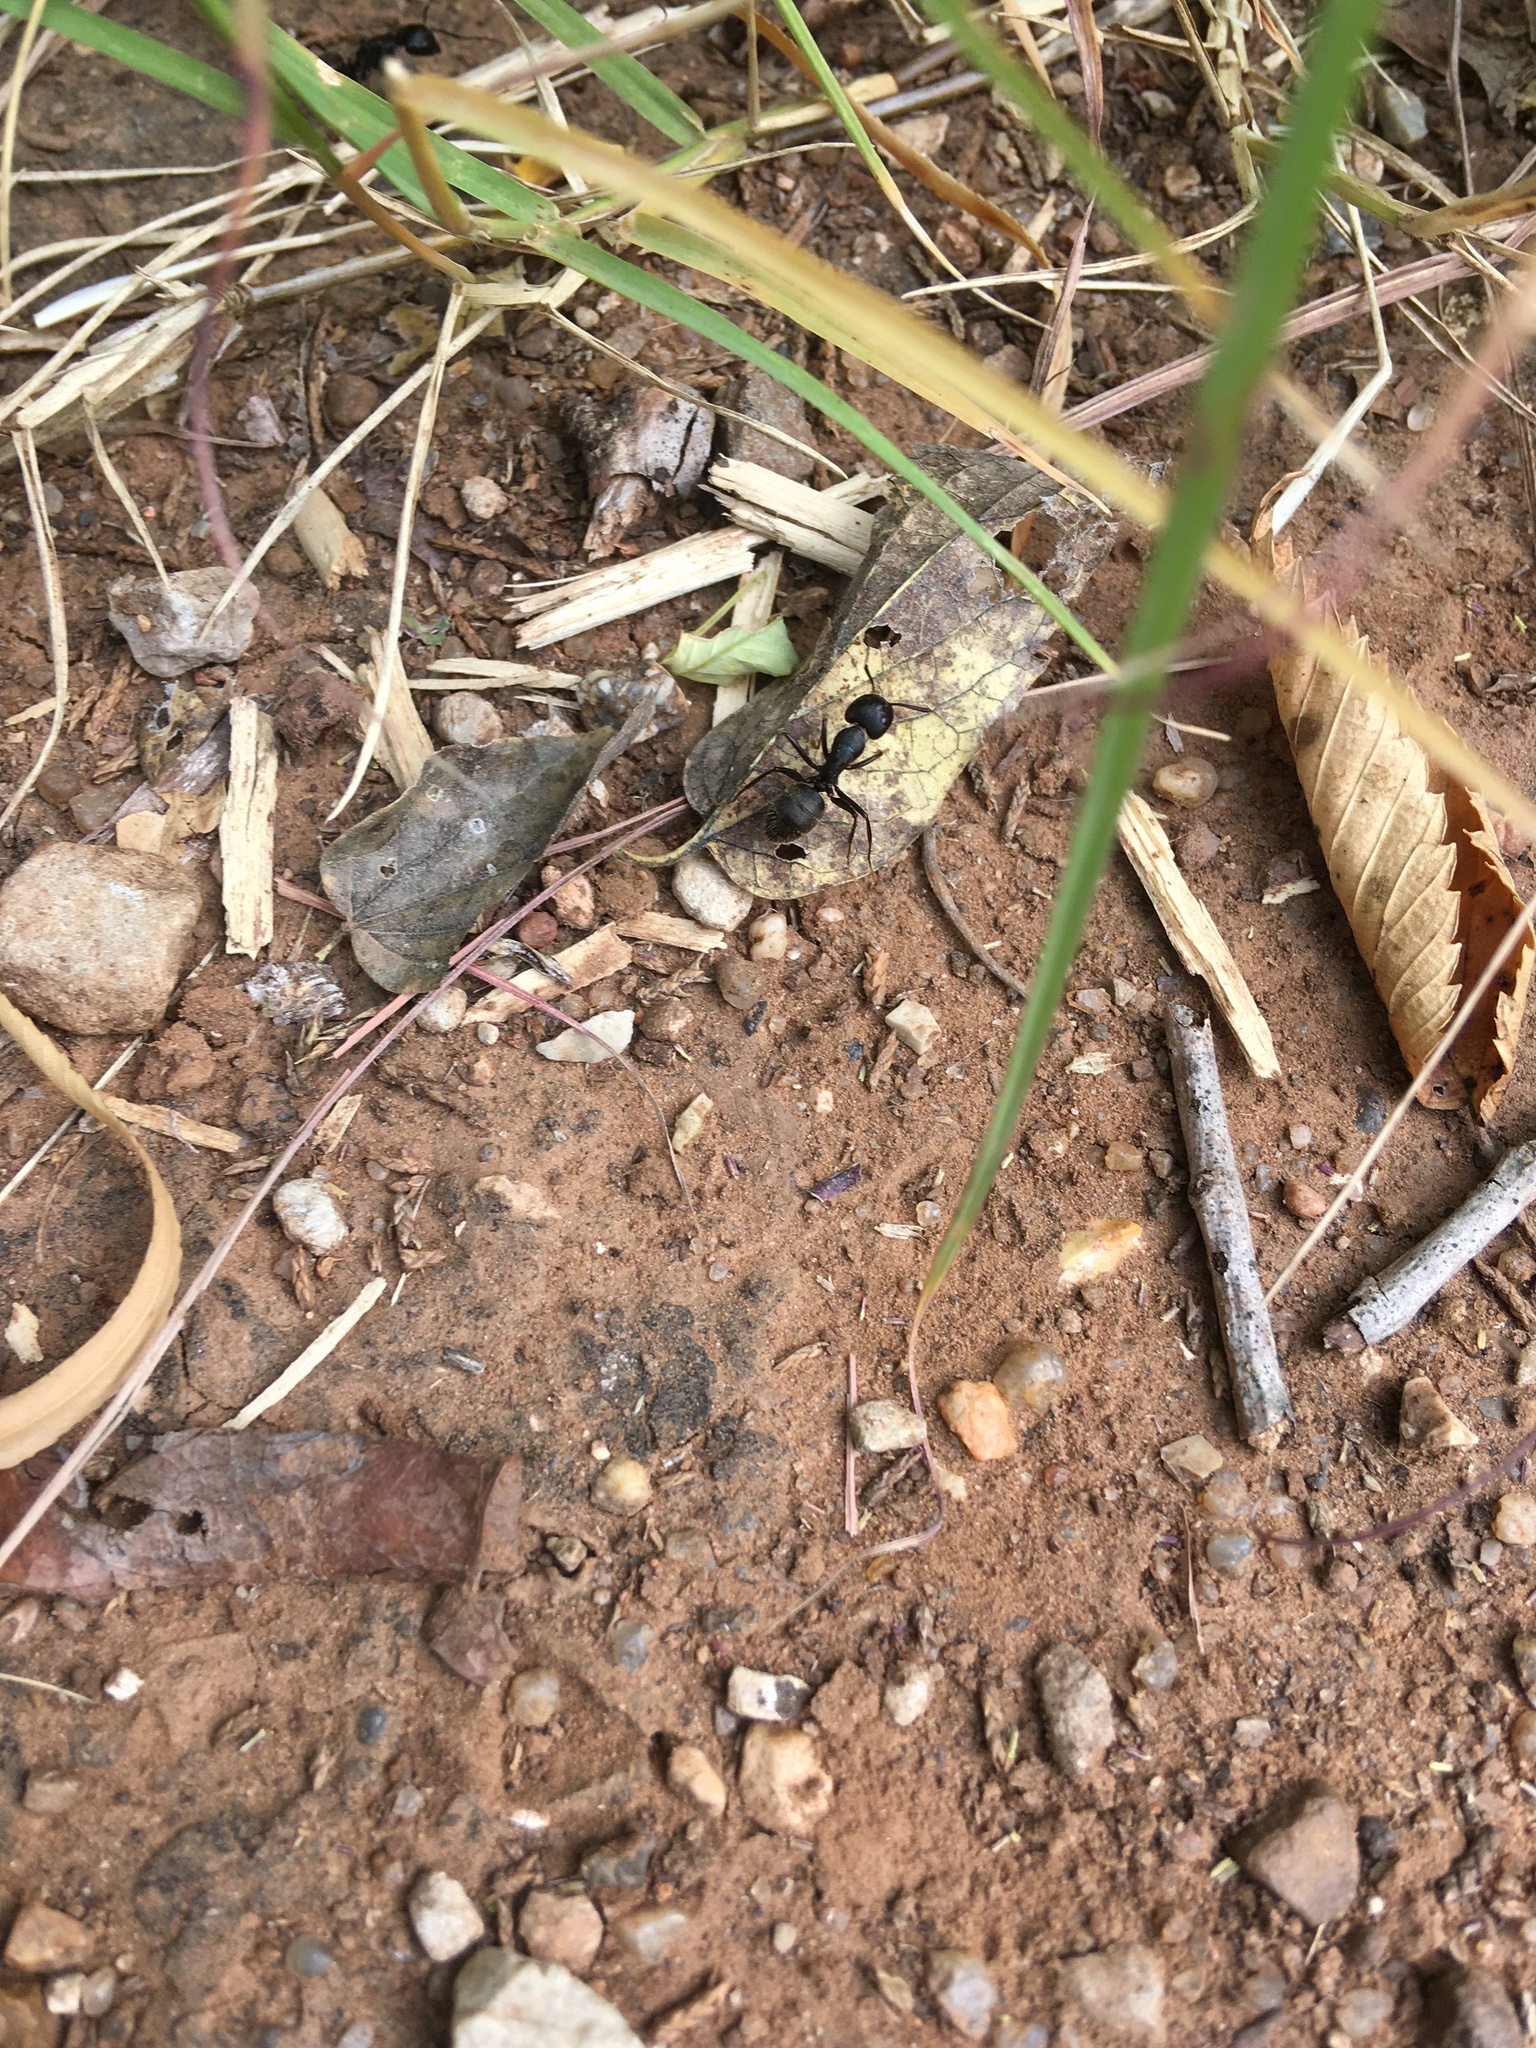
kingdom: Animalia
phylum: Arthropoda
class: Insecta
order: Hymenoptera
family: Formicidae
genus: Camponotus
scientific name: Camponotus pennsylvanicus
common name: Black carpenter ant
